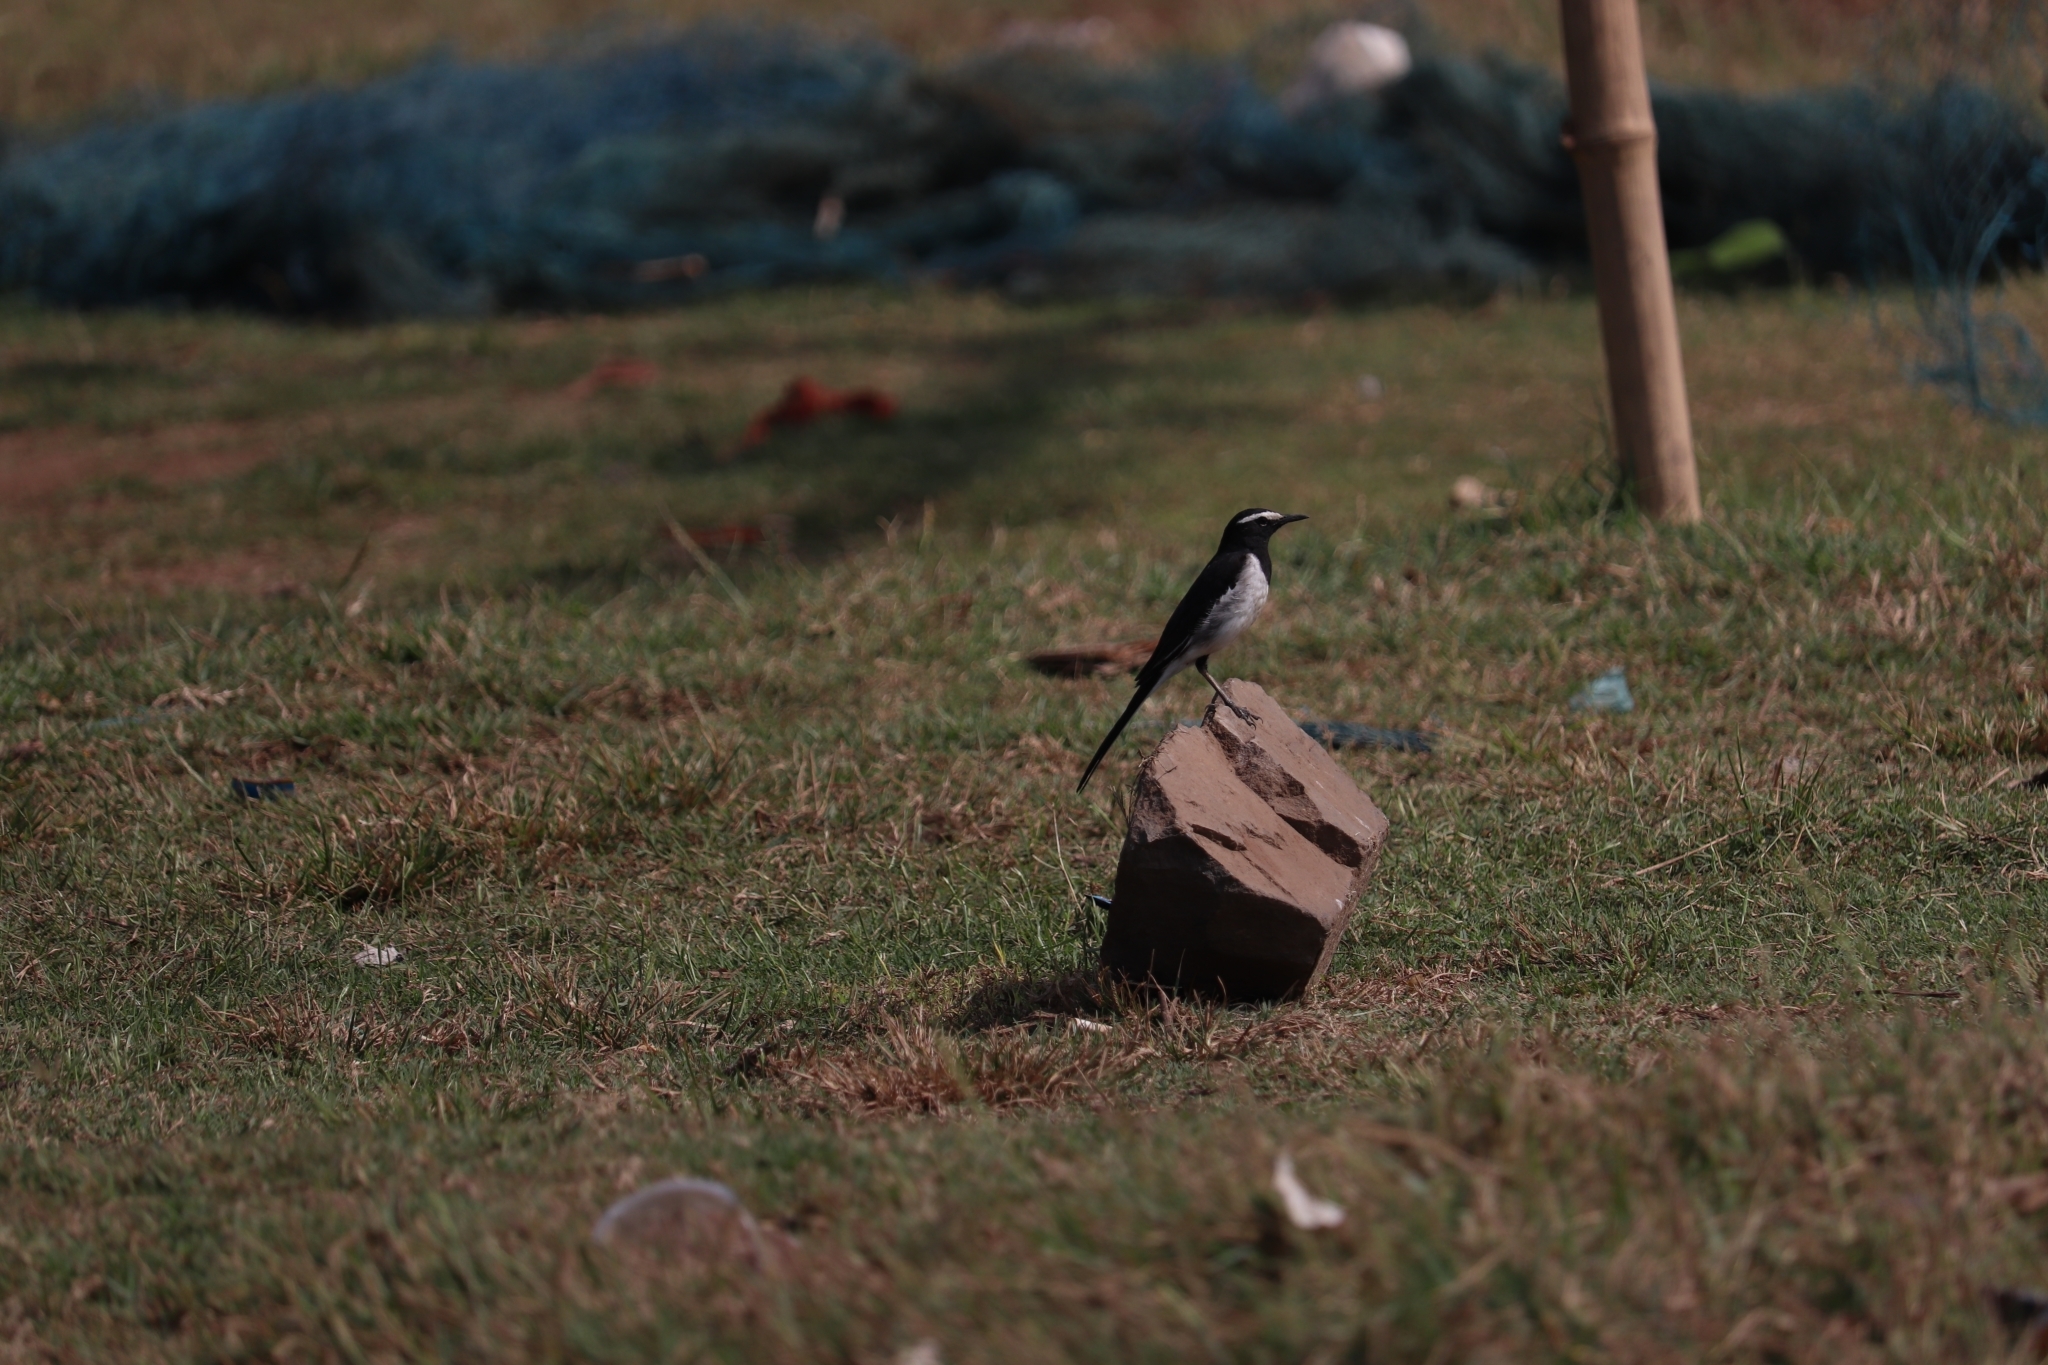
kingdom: Animalia
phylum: Chordata
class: Aves
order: Passeriformes
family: Motacillidae
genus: Motacilla
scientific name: Motacilla maderaspatensis
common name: White-browed wagtail
